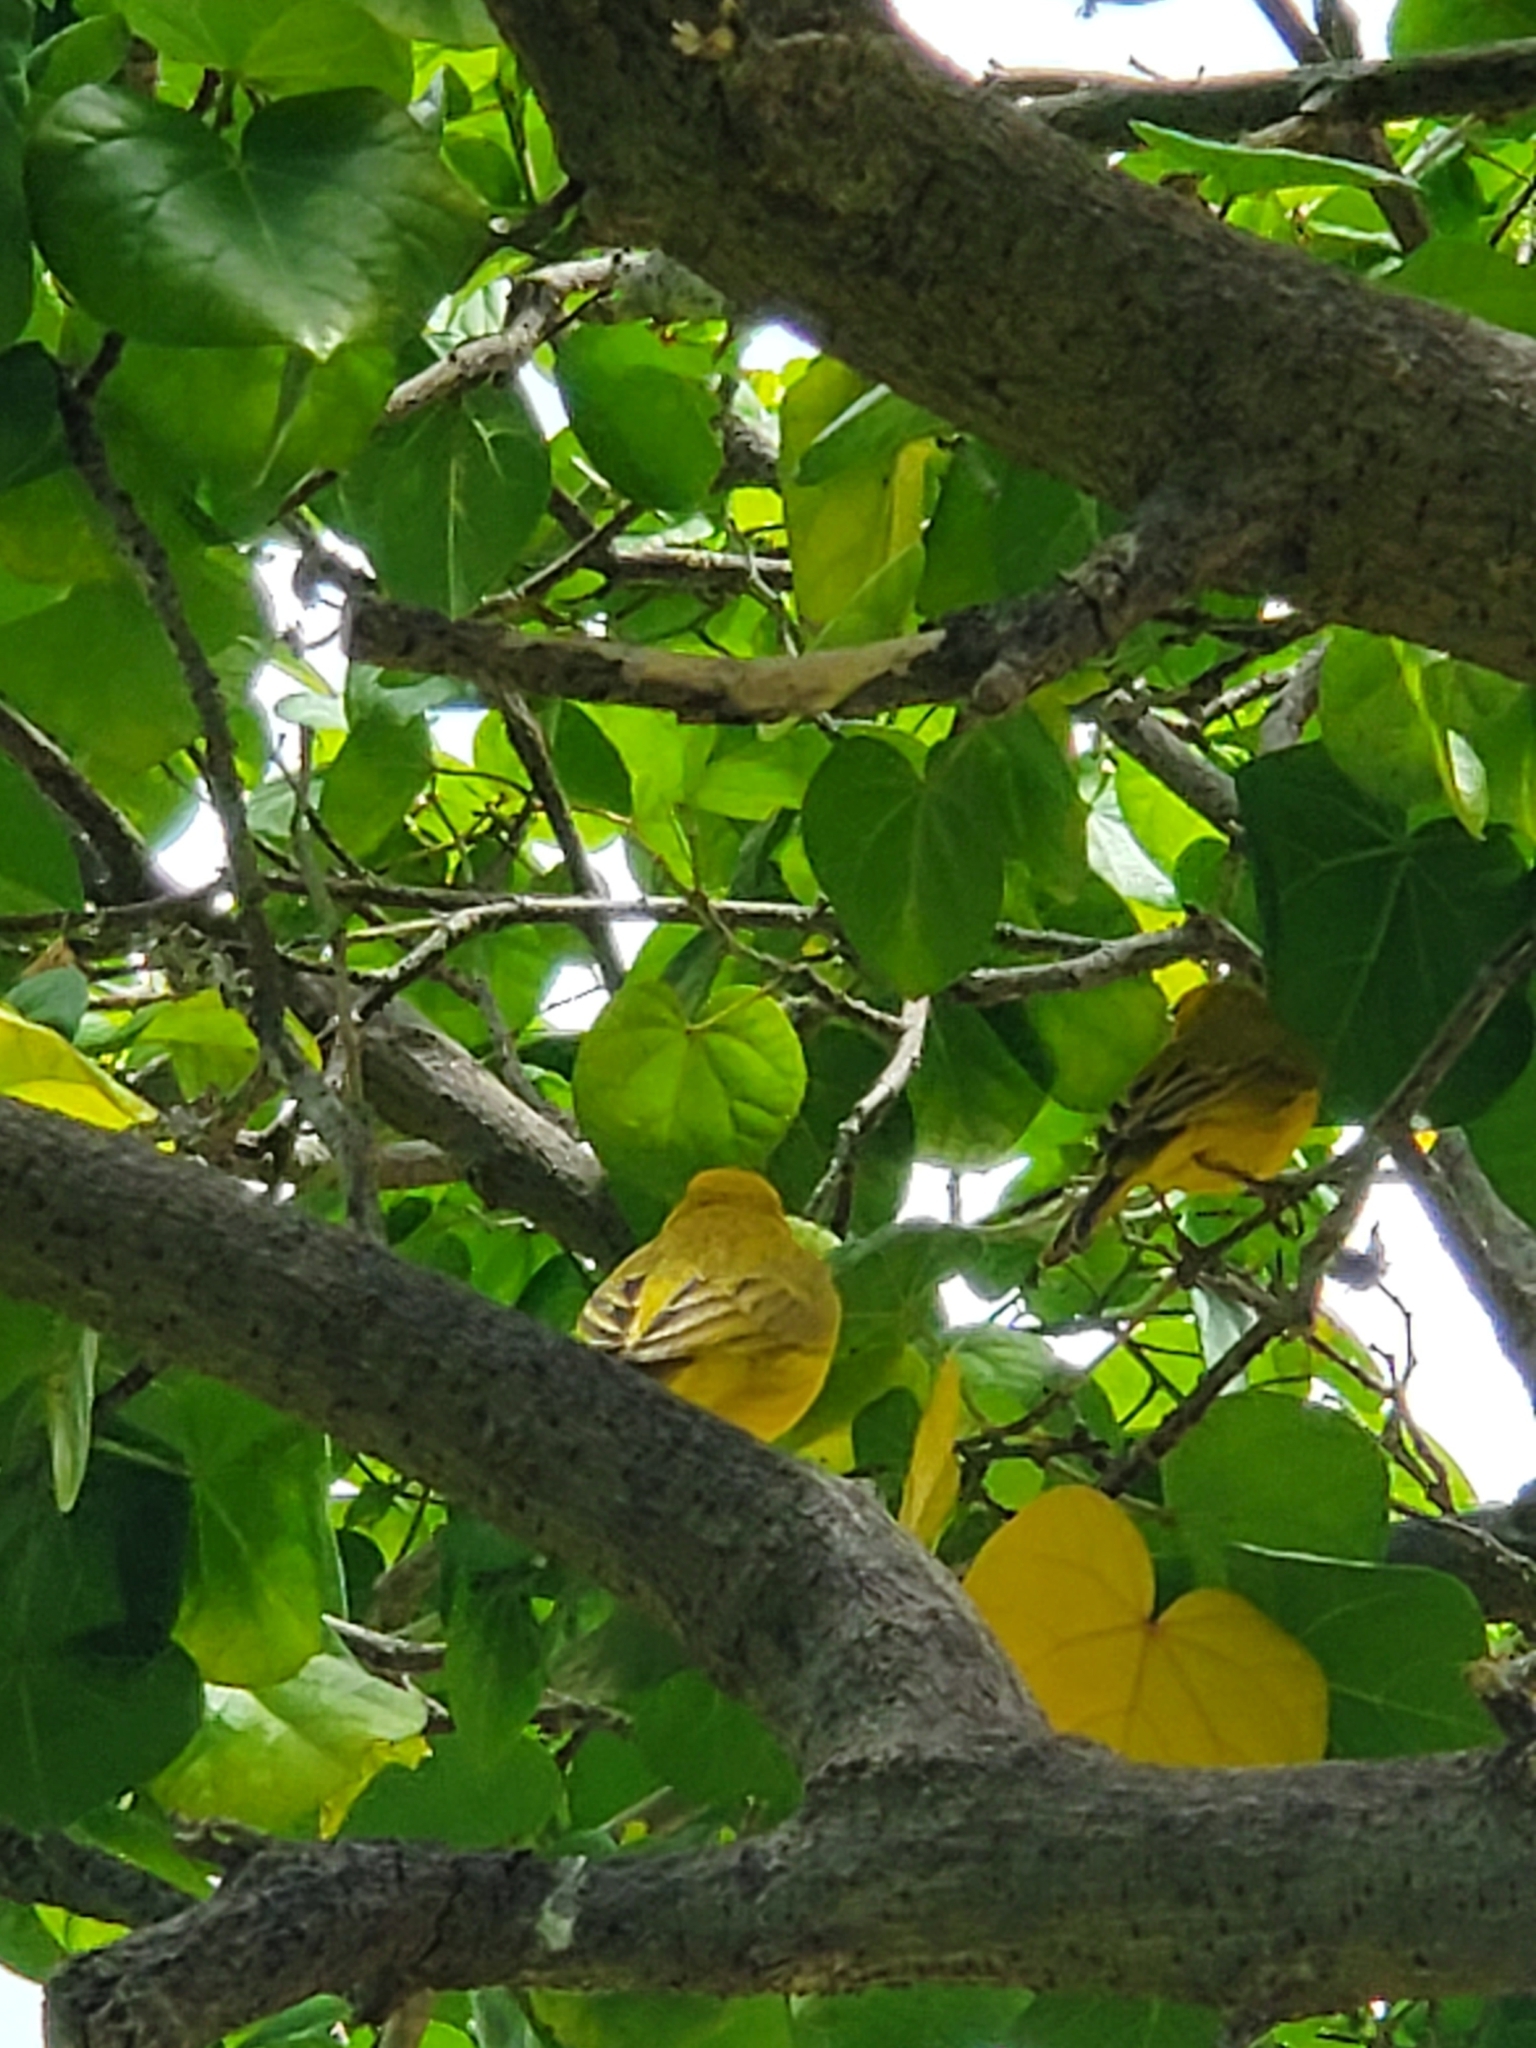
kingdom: Animalia
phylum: Chordata
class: Aves
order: Passeriformes
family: Thraupidae
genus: Sicalis
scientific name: Sicalis flaveola
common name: Saffron finch
